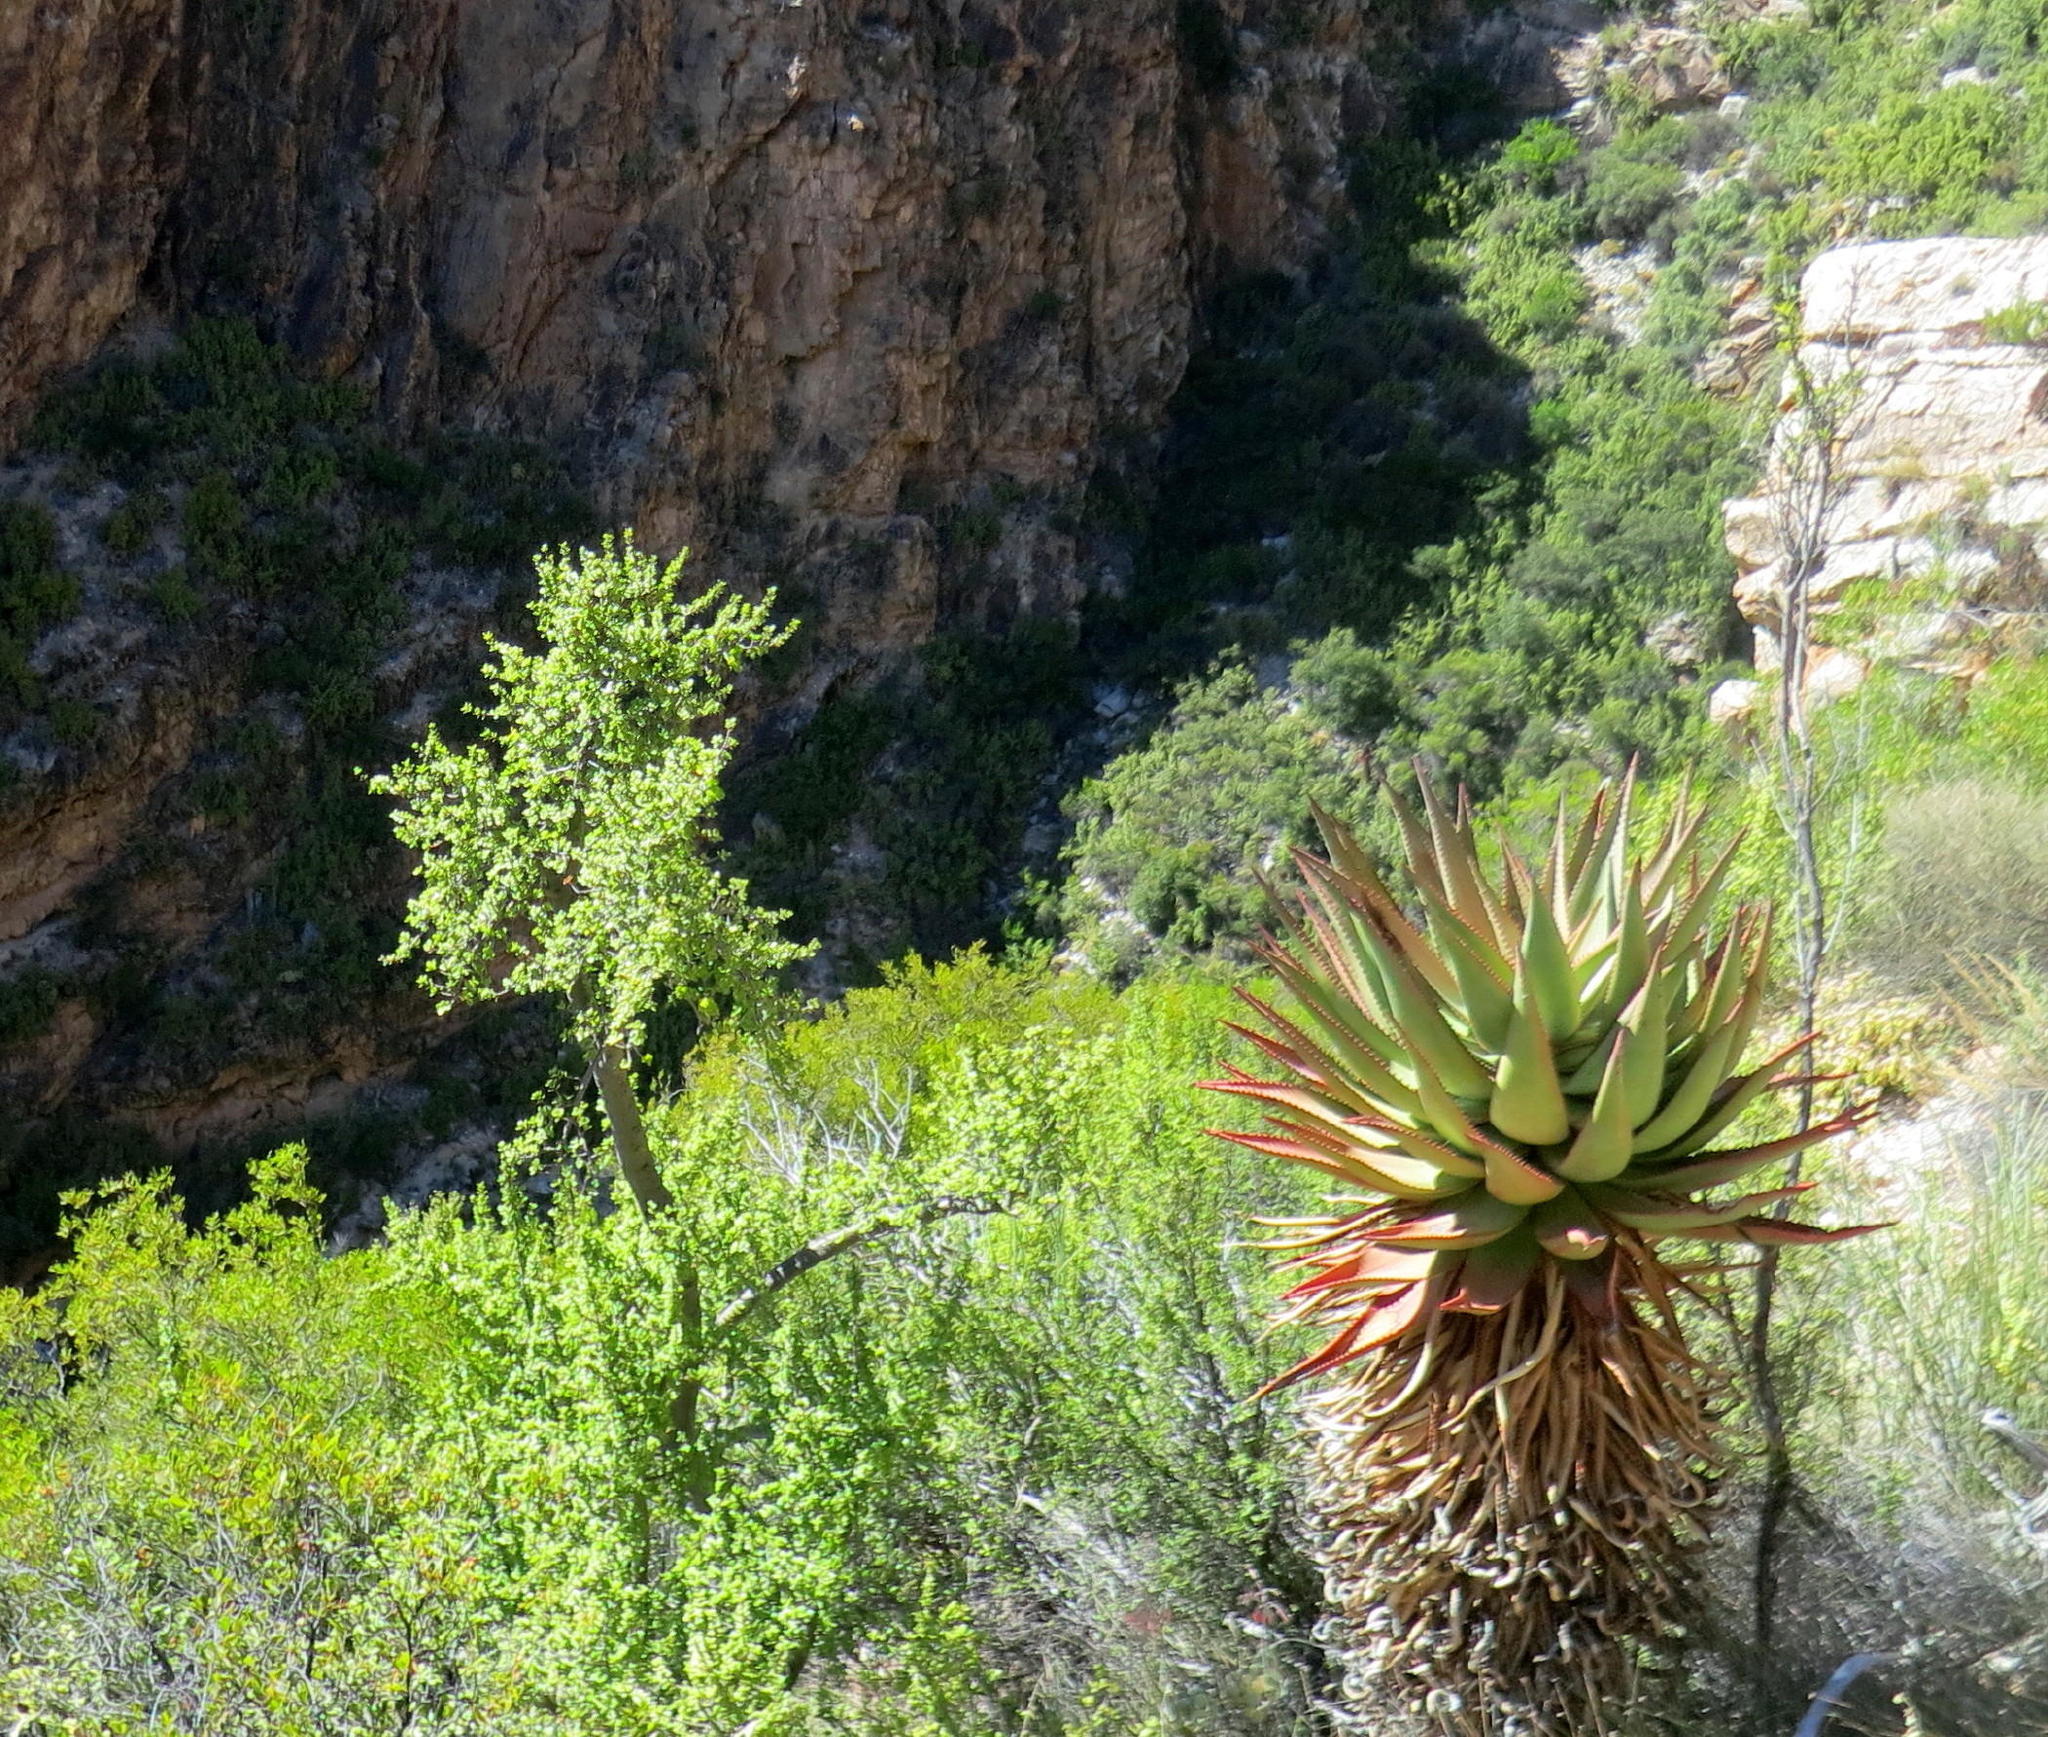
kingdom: Plantae
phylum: Tracheophyta
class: Liliopsida
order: Asparagales
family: Asphodelaceae
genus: Aloe
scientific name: Aloe ferox
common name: Bitter aloe
